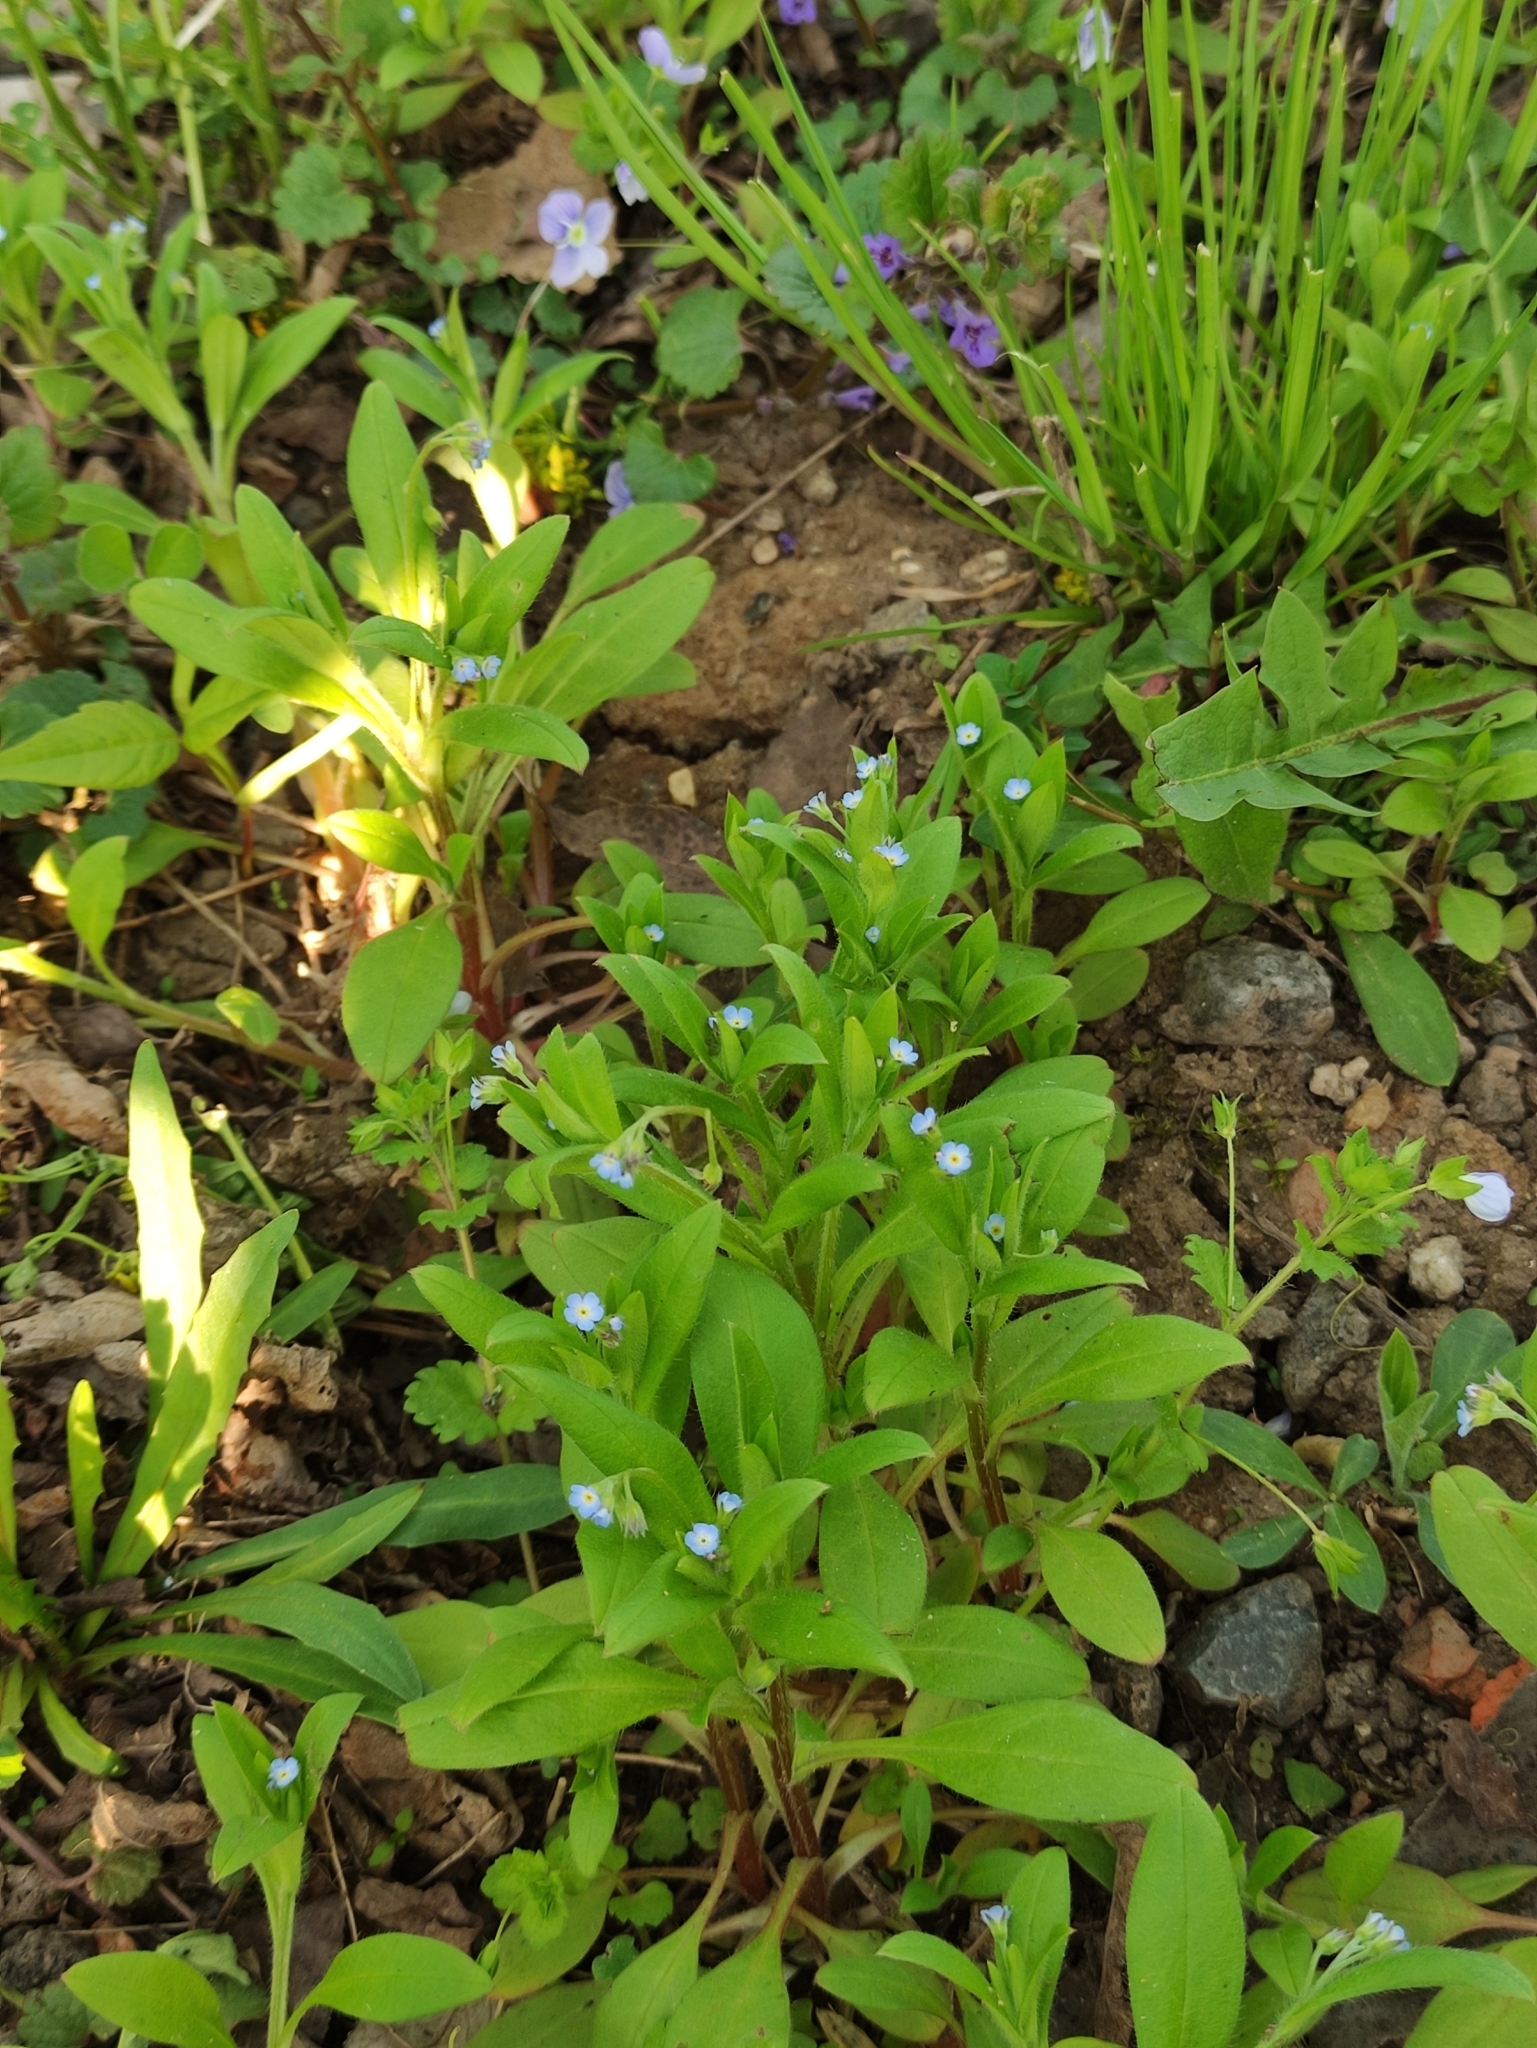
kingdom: Plantae
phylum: Tracheophyta
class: Magnoliopsida
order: Boraginales
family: Boraginaceae
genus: Myosotis
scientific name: Myosotis sparsiflora
